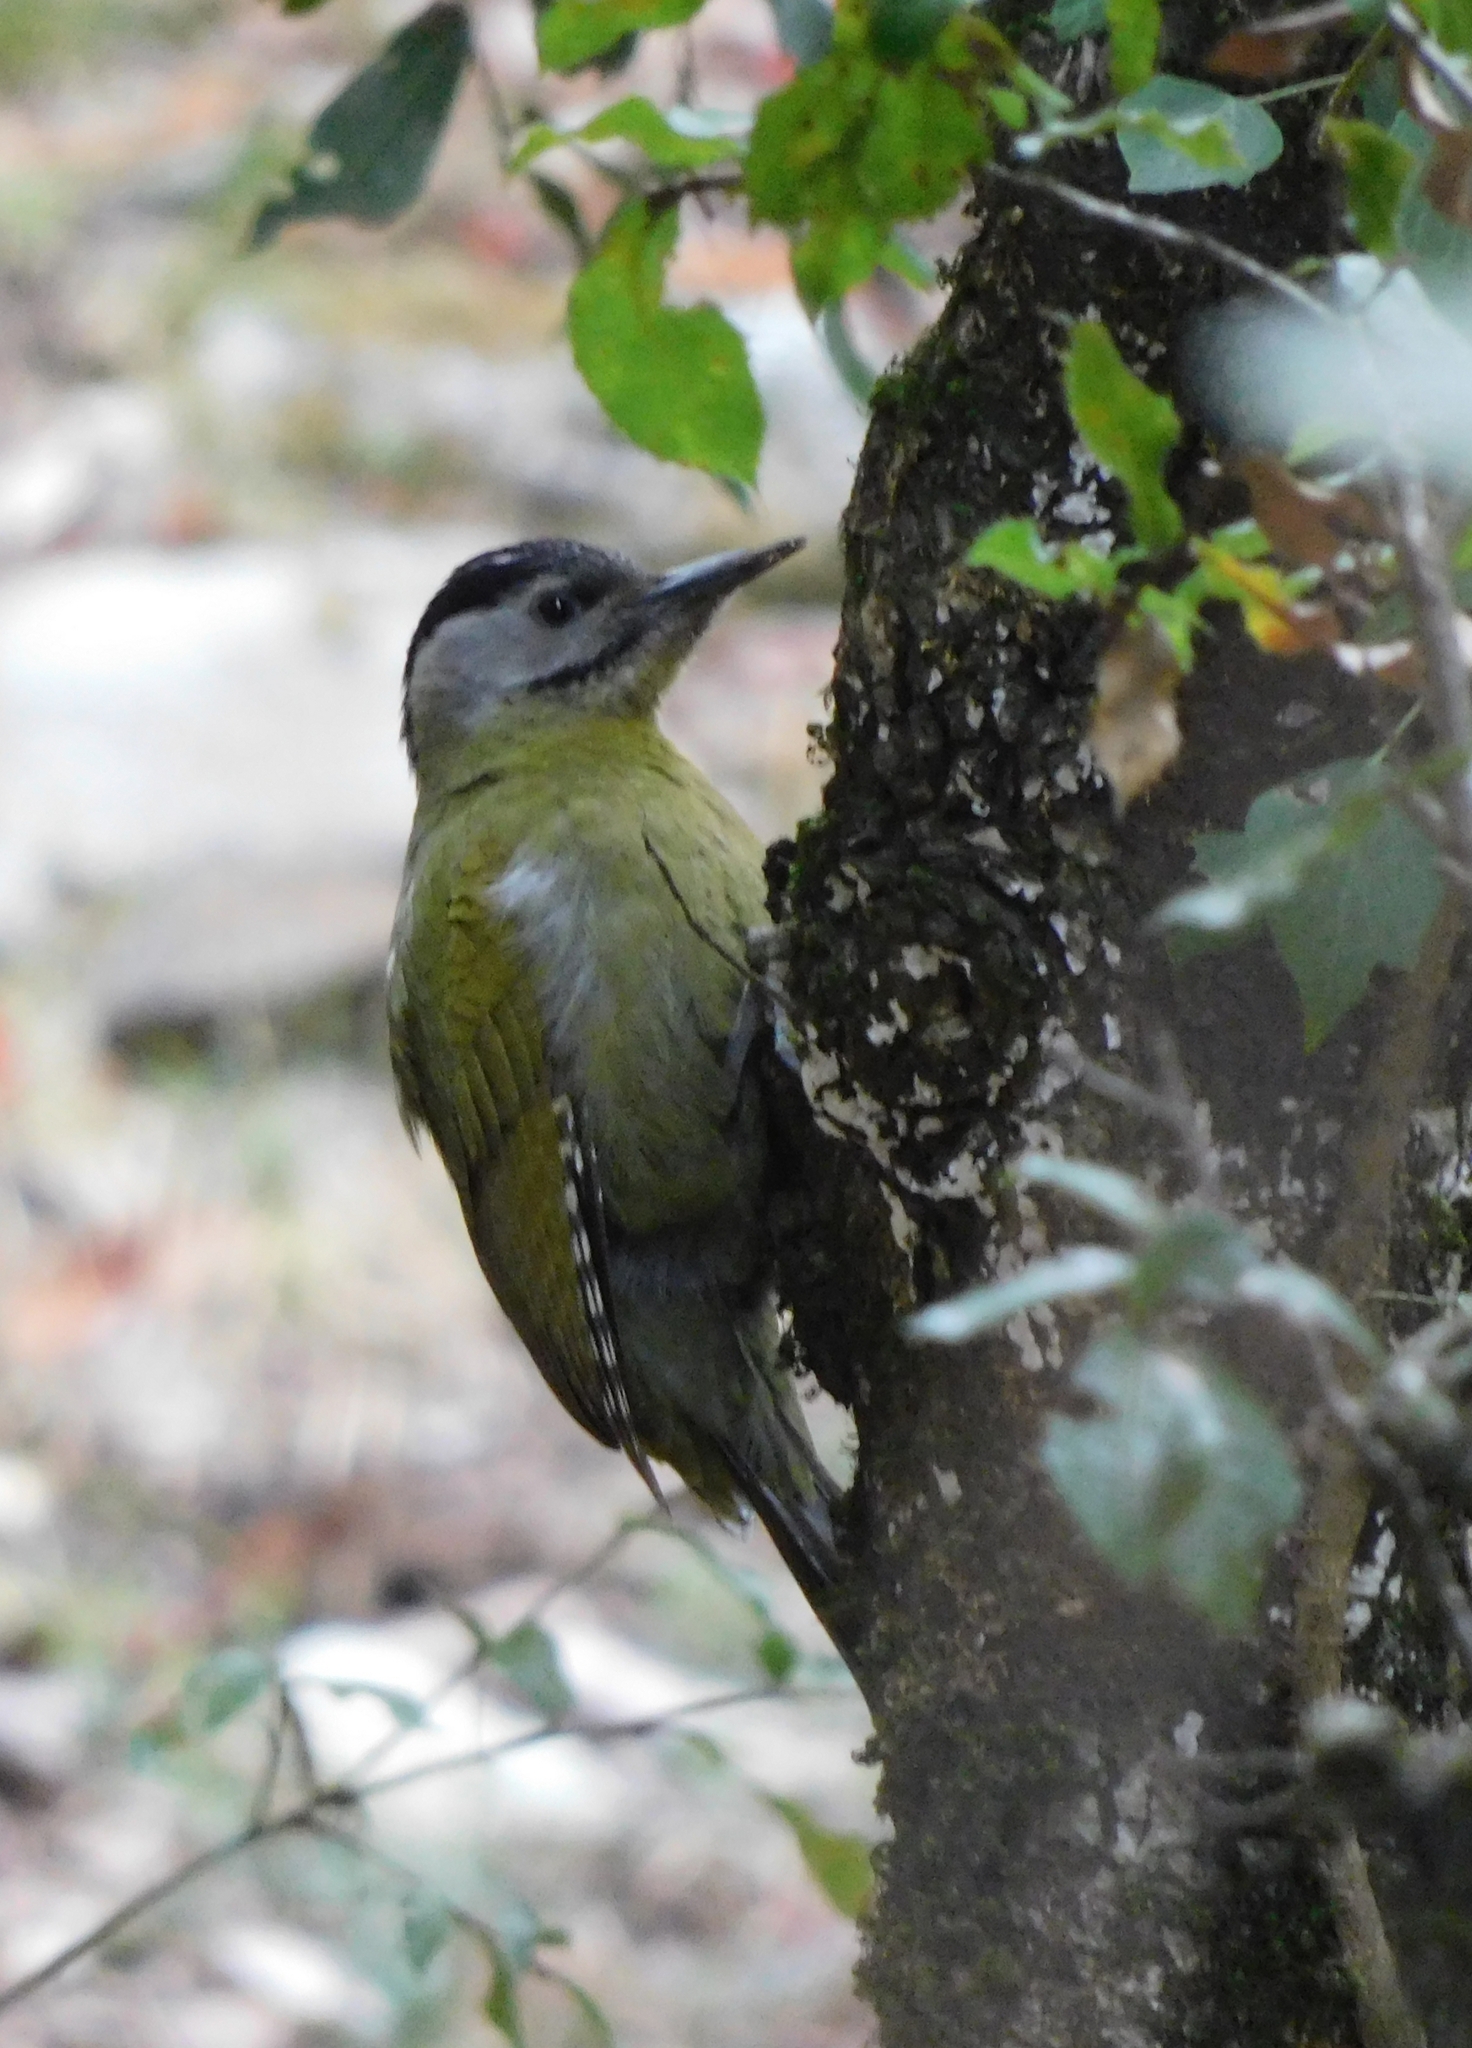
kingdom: Animalia
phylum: Chordata
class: Aves
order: Piciformes
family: Picidae
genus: Picus
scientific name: Picus canus
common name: Grey-headed woodpecker
